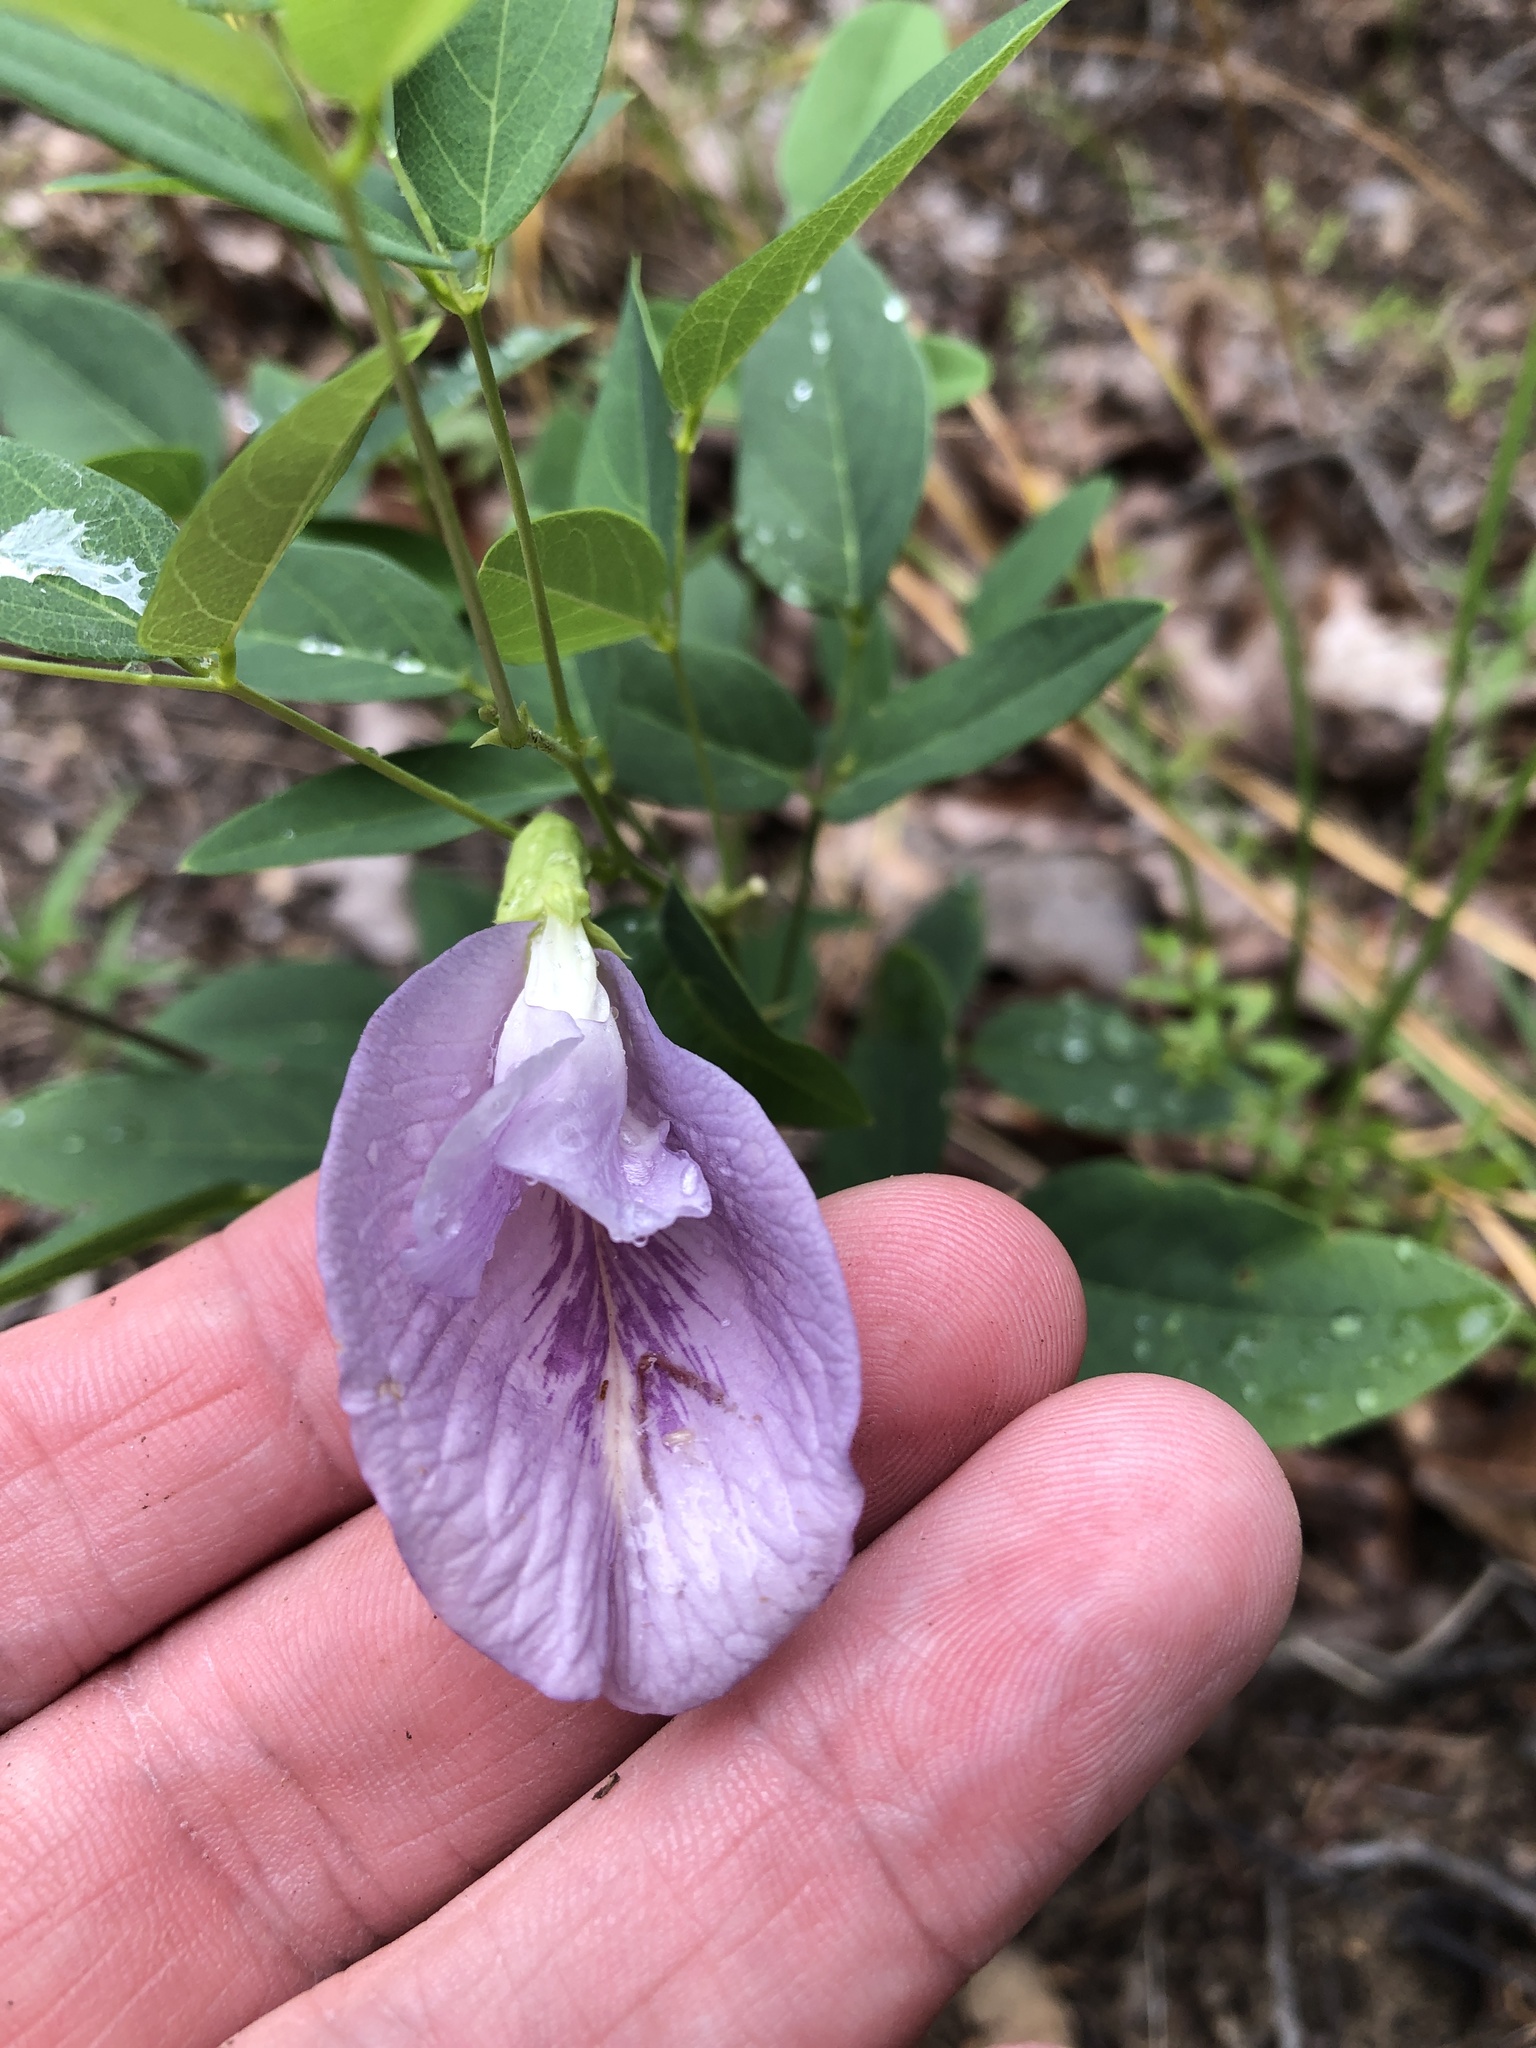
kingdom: Plantae
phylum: Tracheophyta
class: Magnoliopsida
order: Fabales
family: Fabaceae
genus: Clitoria
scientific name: Clitoria mariana
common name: Butterfly-pea
